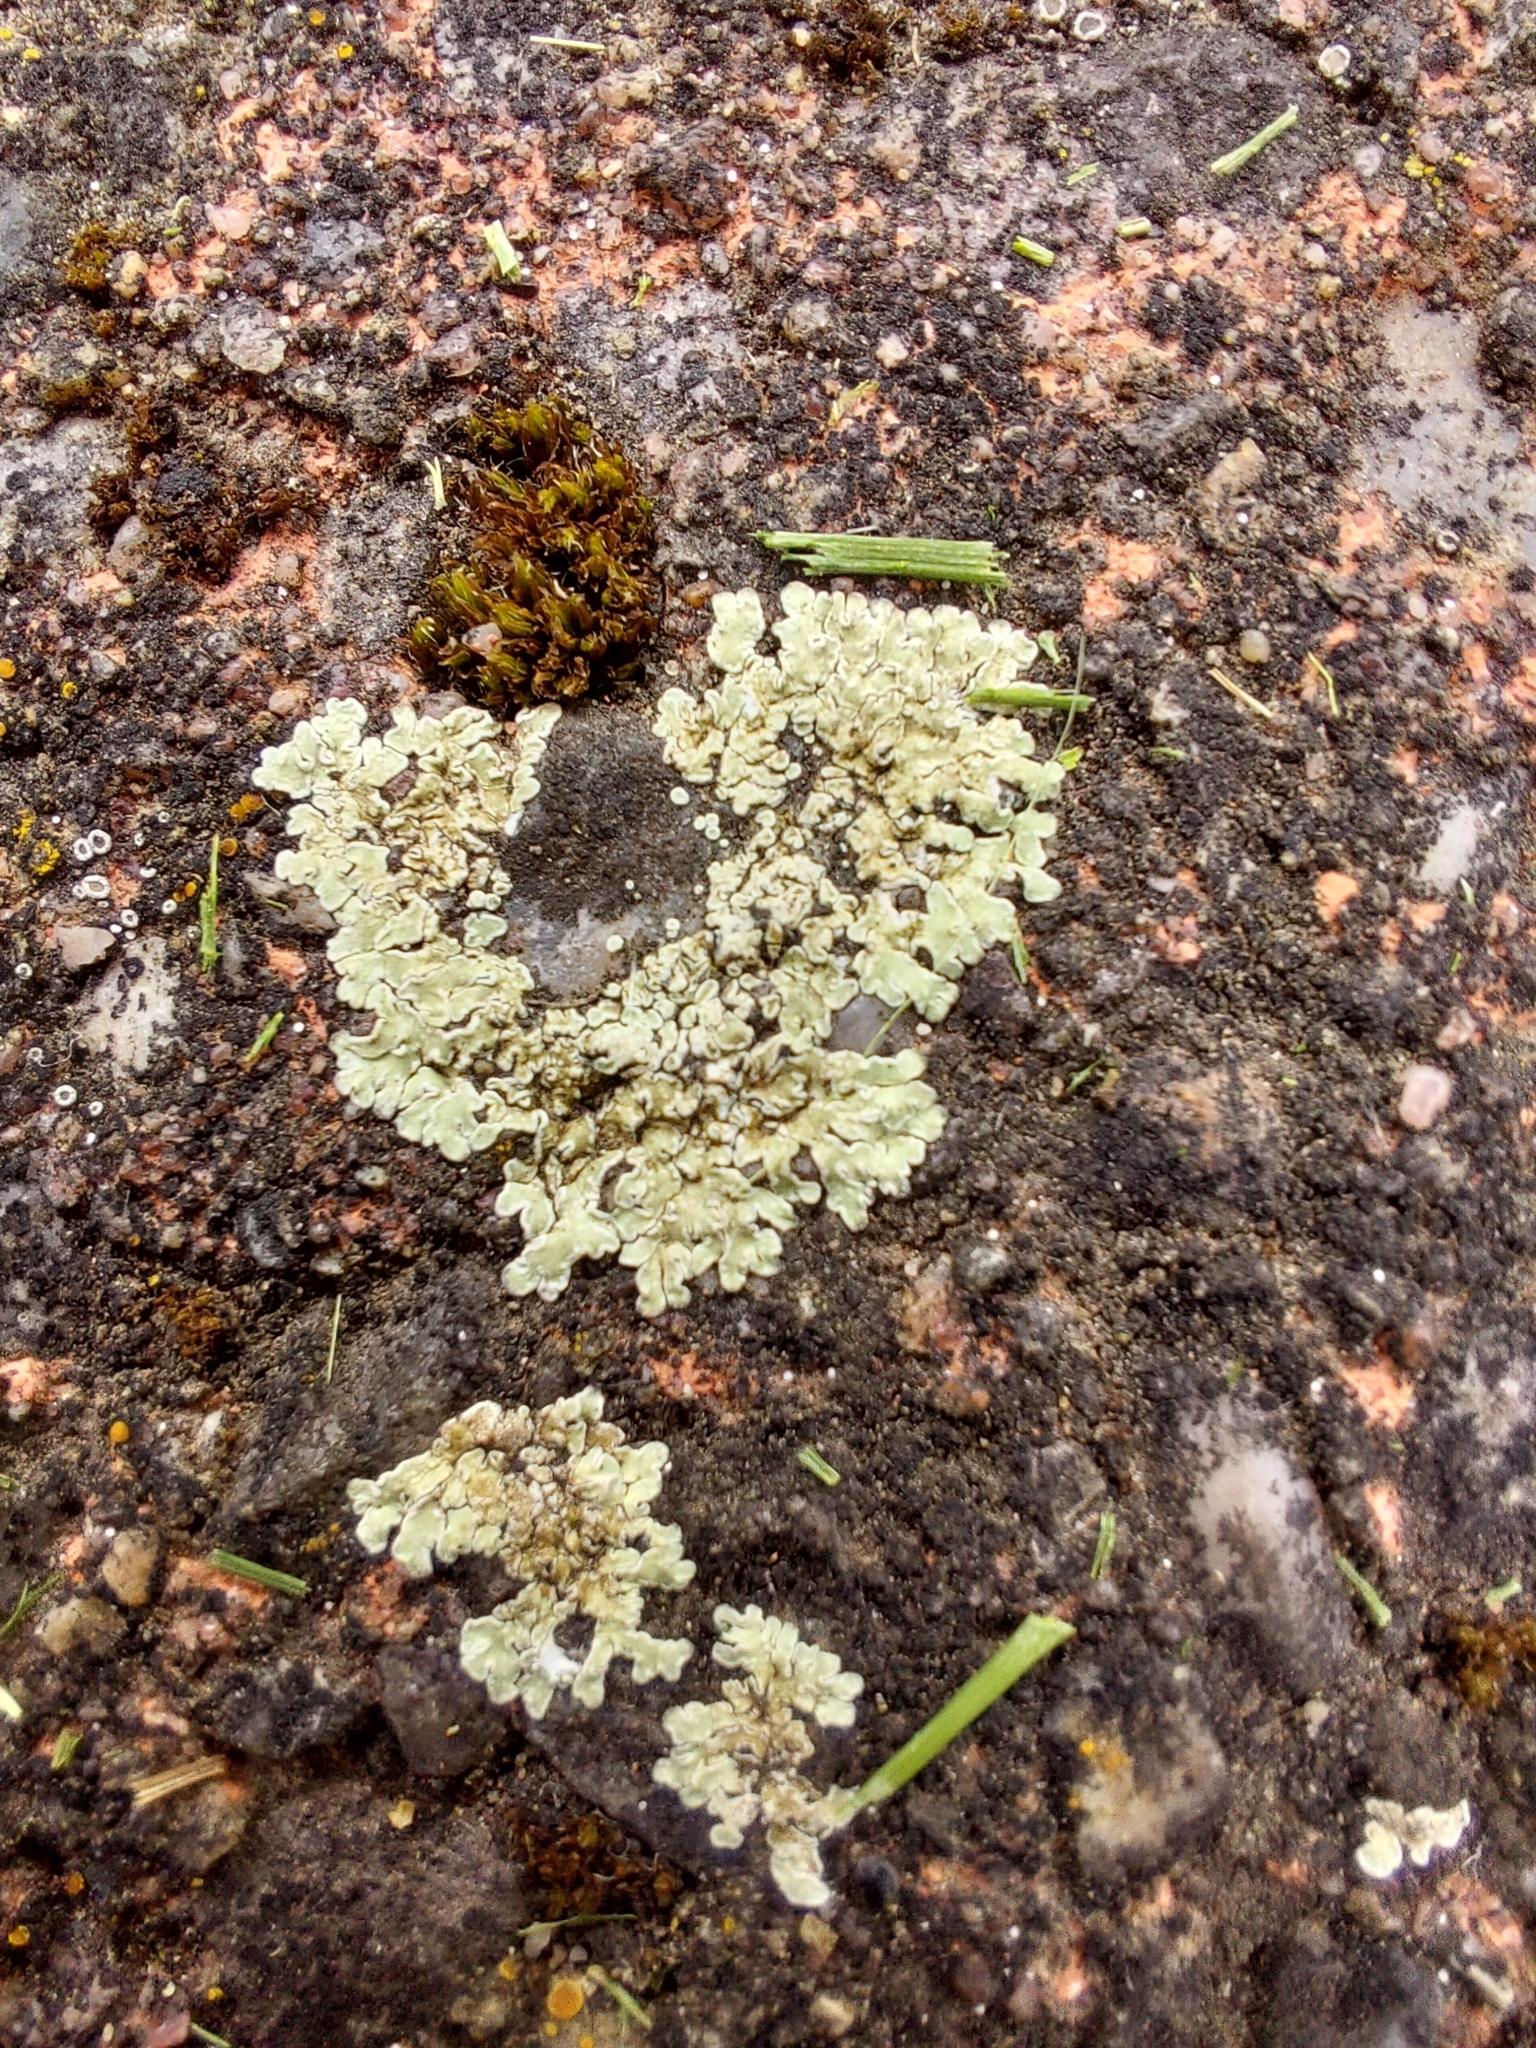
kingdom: Fungi
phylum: Ascomycota
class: Lecanoromycetes
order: Lecanorales
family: Lecanoraceae
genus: Protoparmeliopsis
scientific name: Protoparmeliopsis muralis
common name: Stonewall rim lichen
